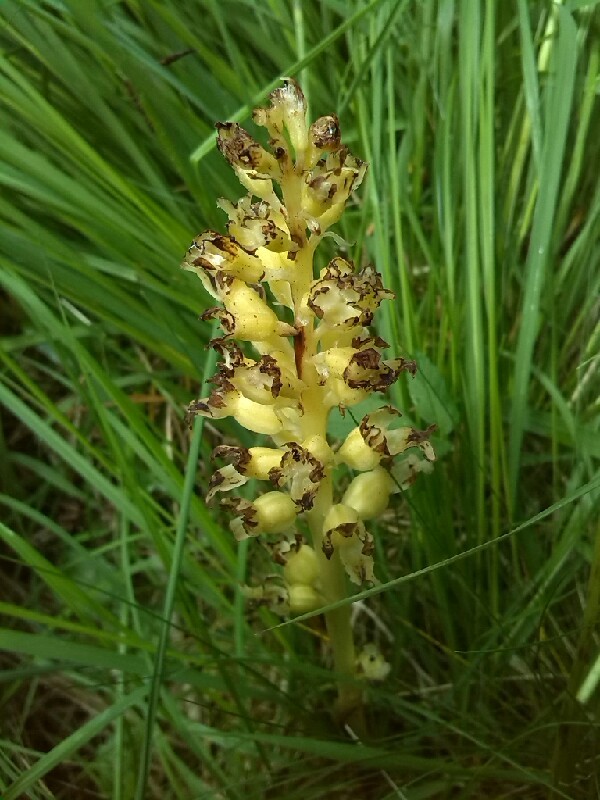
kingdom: Plantae
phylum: Tracheophyta
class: Liliopsida
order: Asparagales
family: Orchidaceae
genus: Neottia
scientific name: Neottia nidus-avis
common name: Bird's-nest orchid
